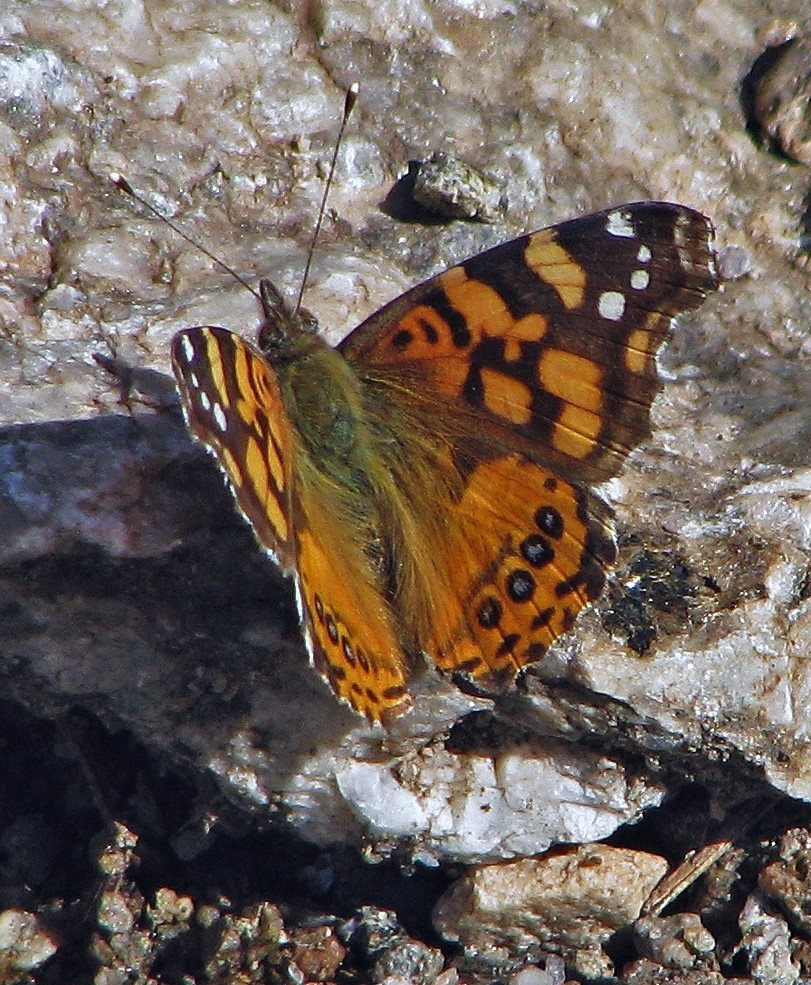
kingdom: Animalia
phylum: Arthropoda
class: Insecta
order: Lepidoptera
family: Nymphalidae
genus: Vanessa
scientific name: Vanessa carye
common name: Subtropical lady
